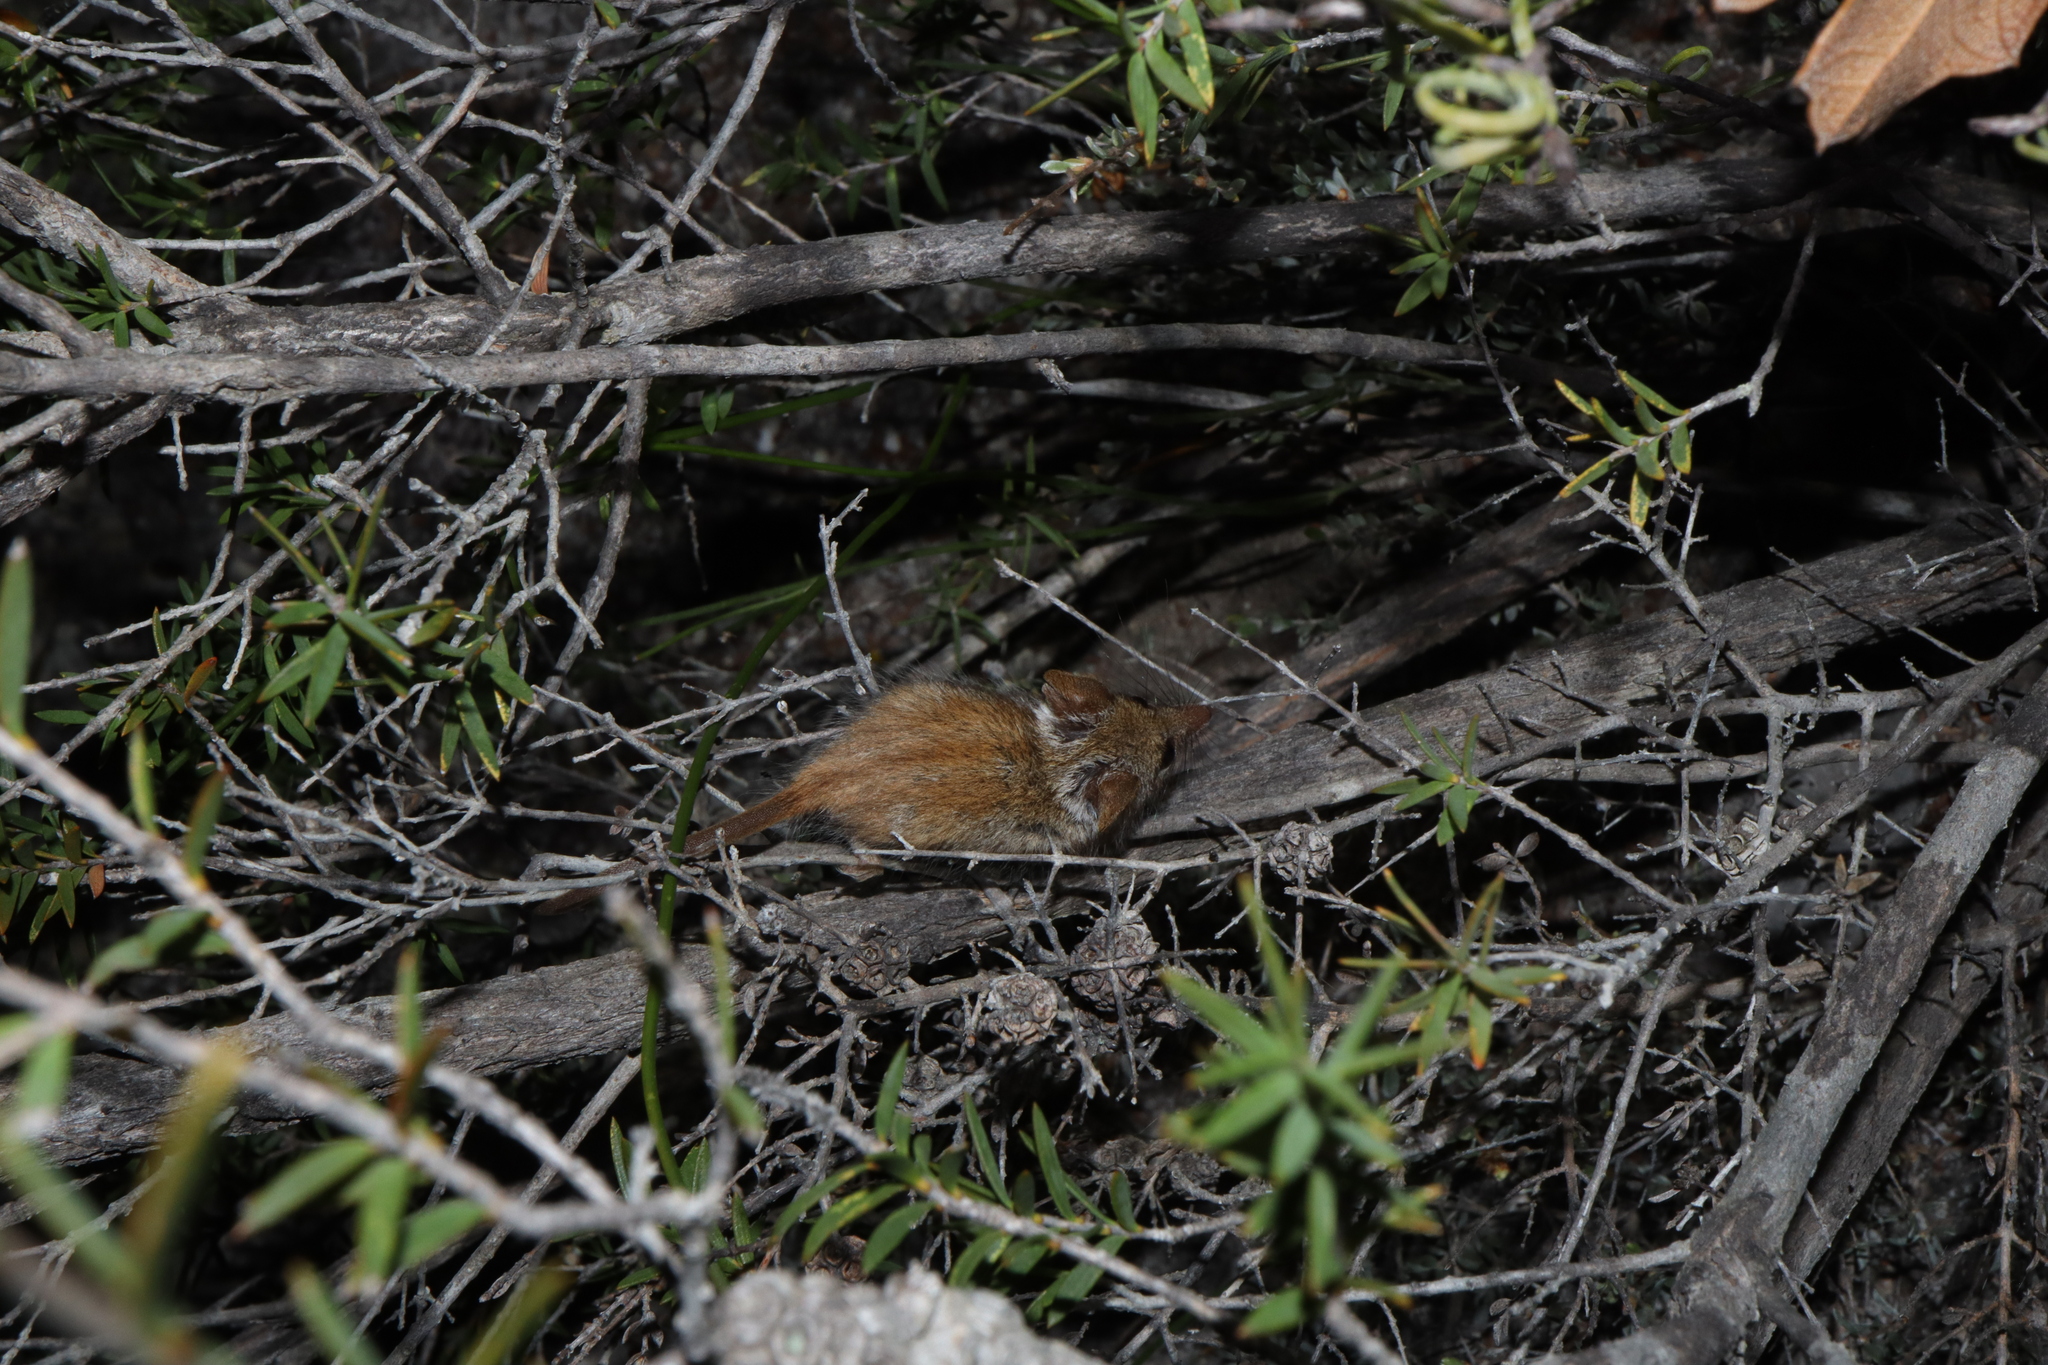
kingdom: Animalia
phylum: Chordata
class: Mammalia
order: Diprotodontia
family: Tarsipedidae
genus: Tarsipes
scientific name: Tarsipes rostratus
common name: Honey possum
